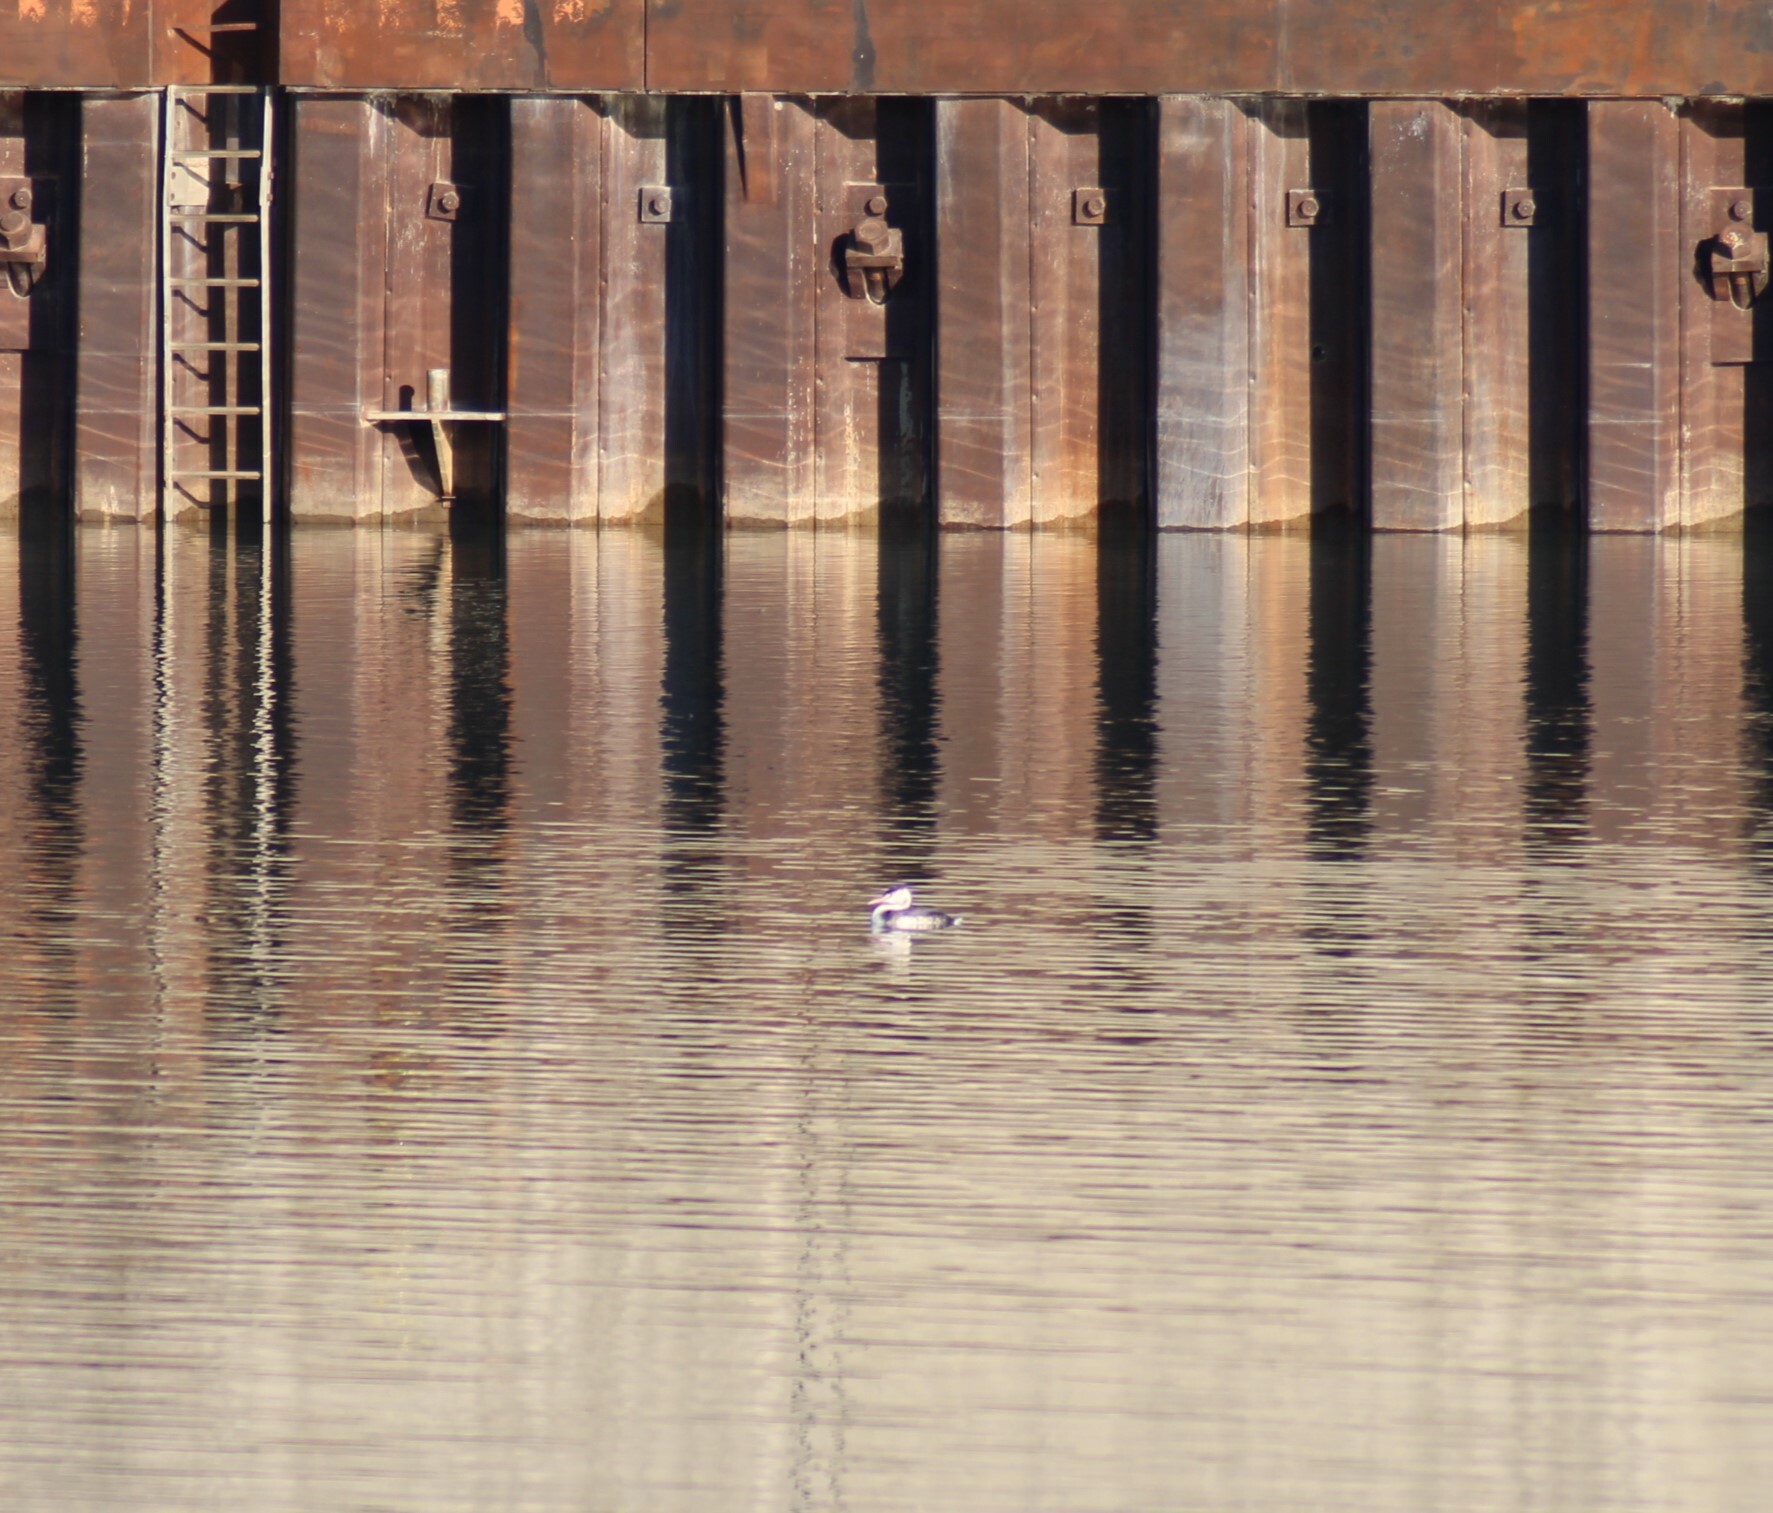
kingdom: Animalia
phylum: Chordata
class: Aves
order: Podicipediformes
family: Podicipedidae
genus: Podiceps
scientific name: Podiceps cristatus
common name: Great crested grebe
